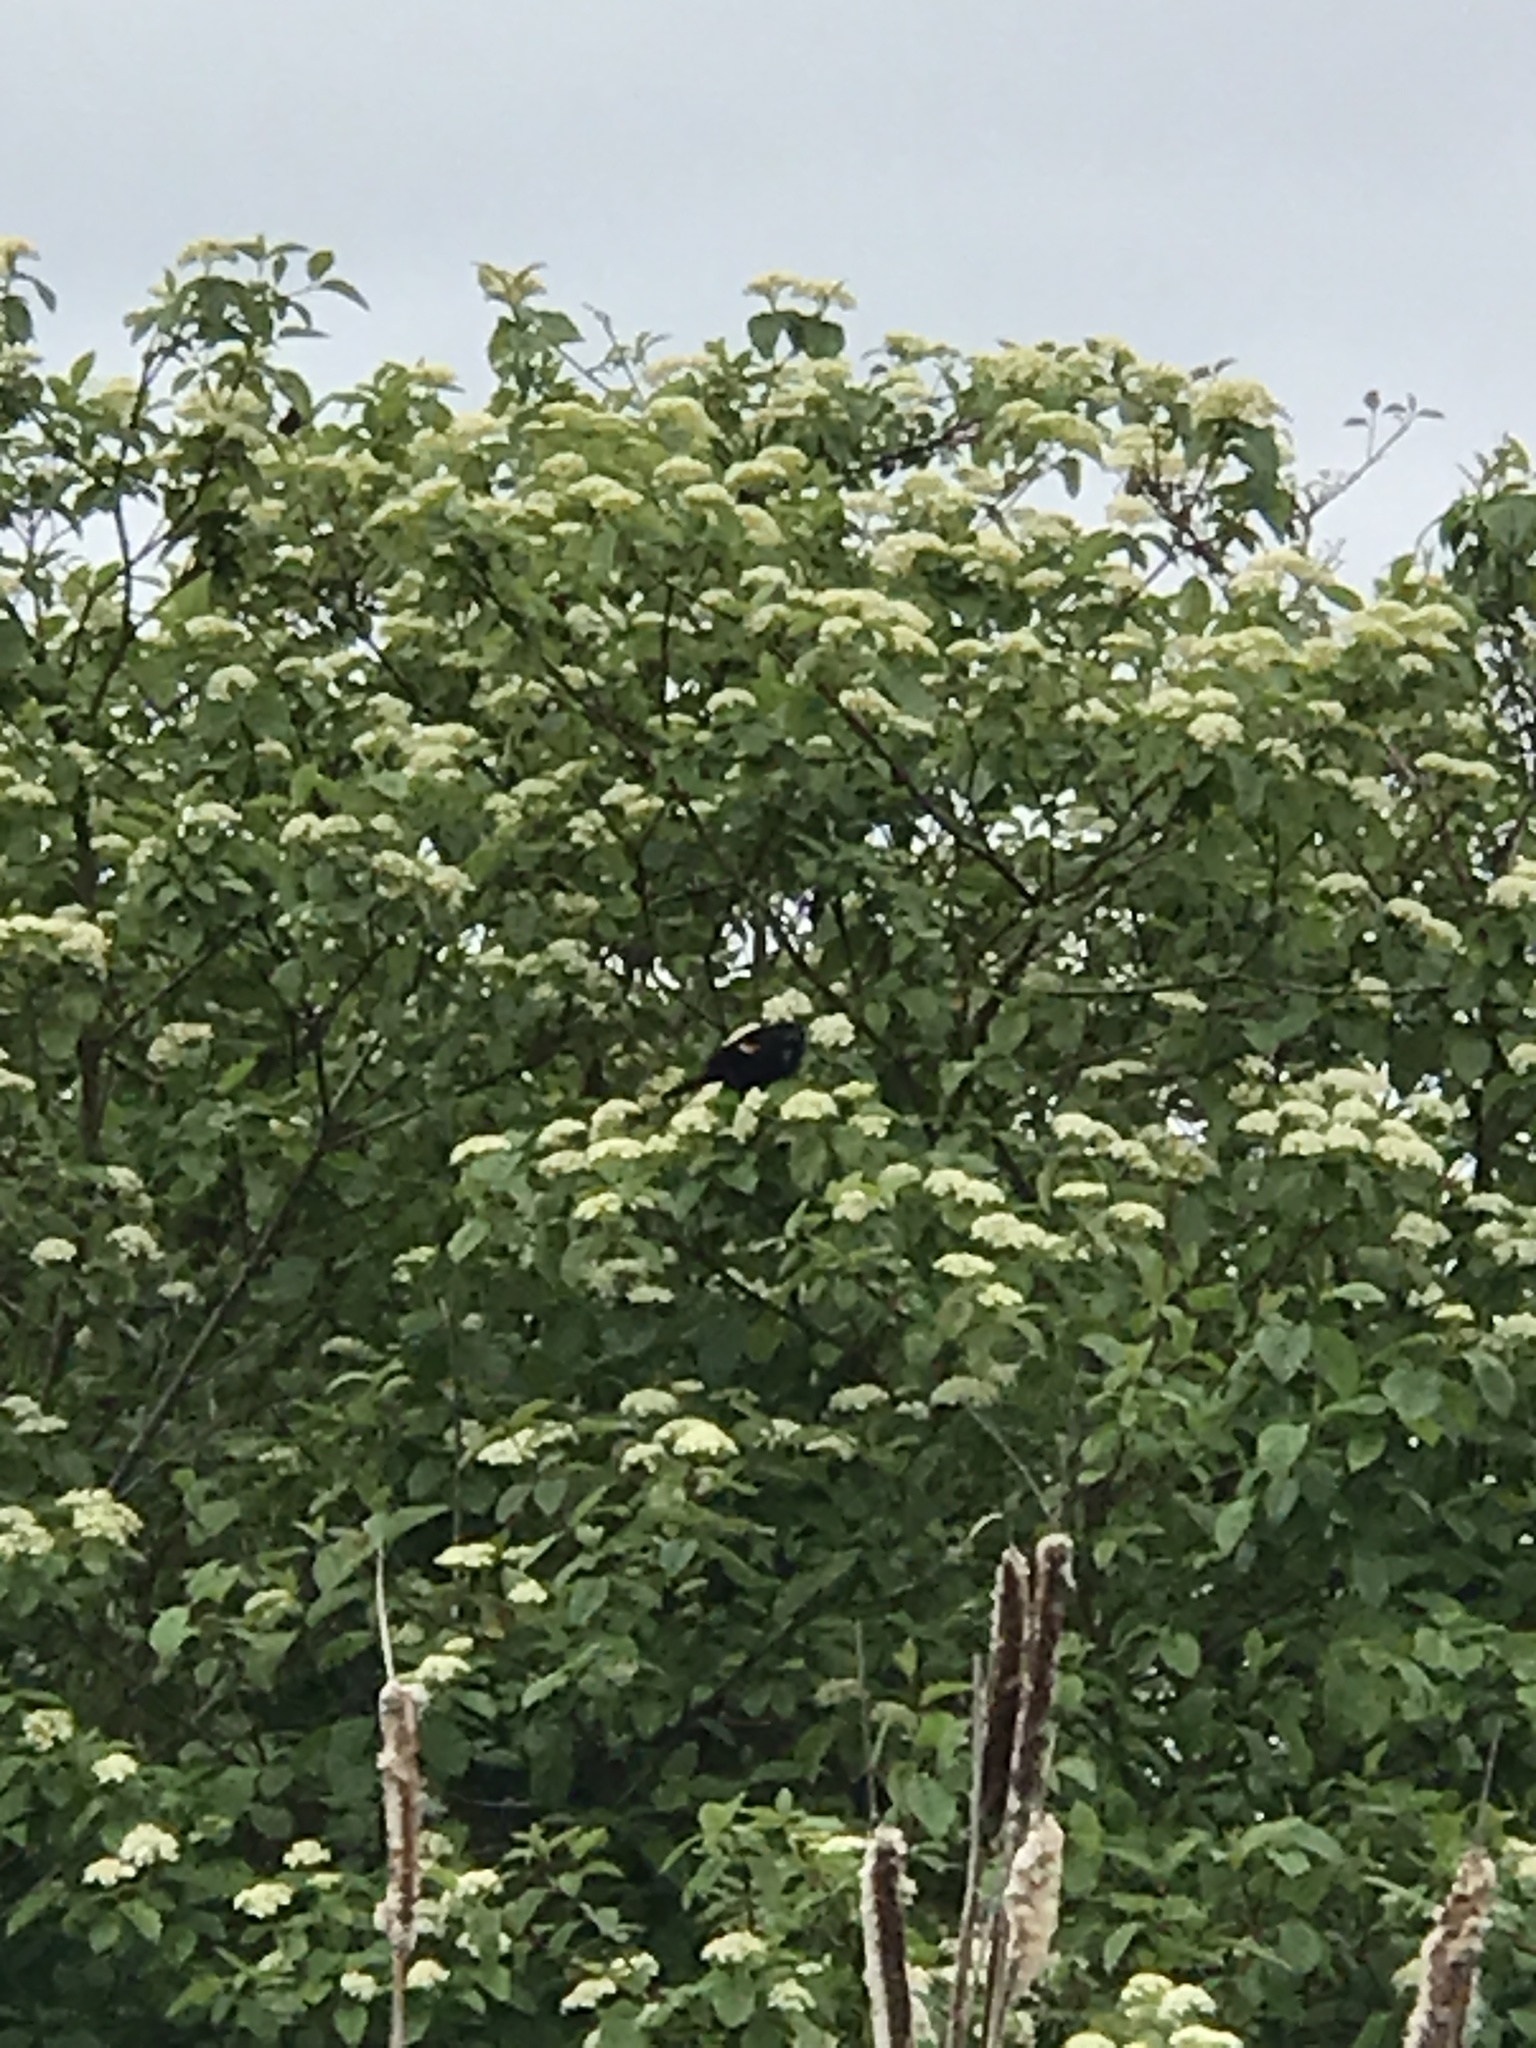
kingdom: Animalia
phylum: Chordata
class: Aves
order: Passeriformes
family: Icteridae
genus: Agelaius
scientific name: Agelaius phoeniceus
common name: Red-winged blackbird
